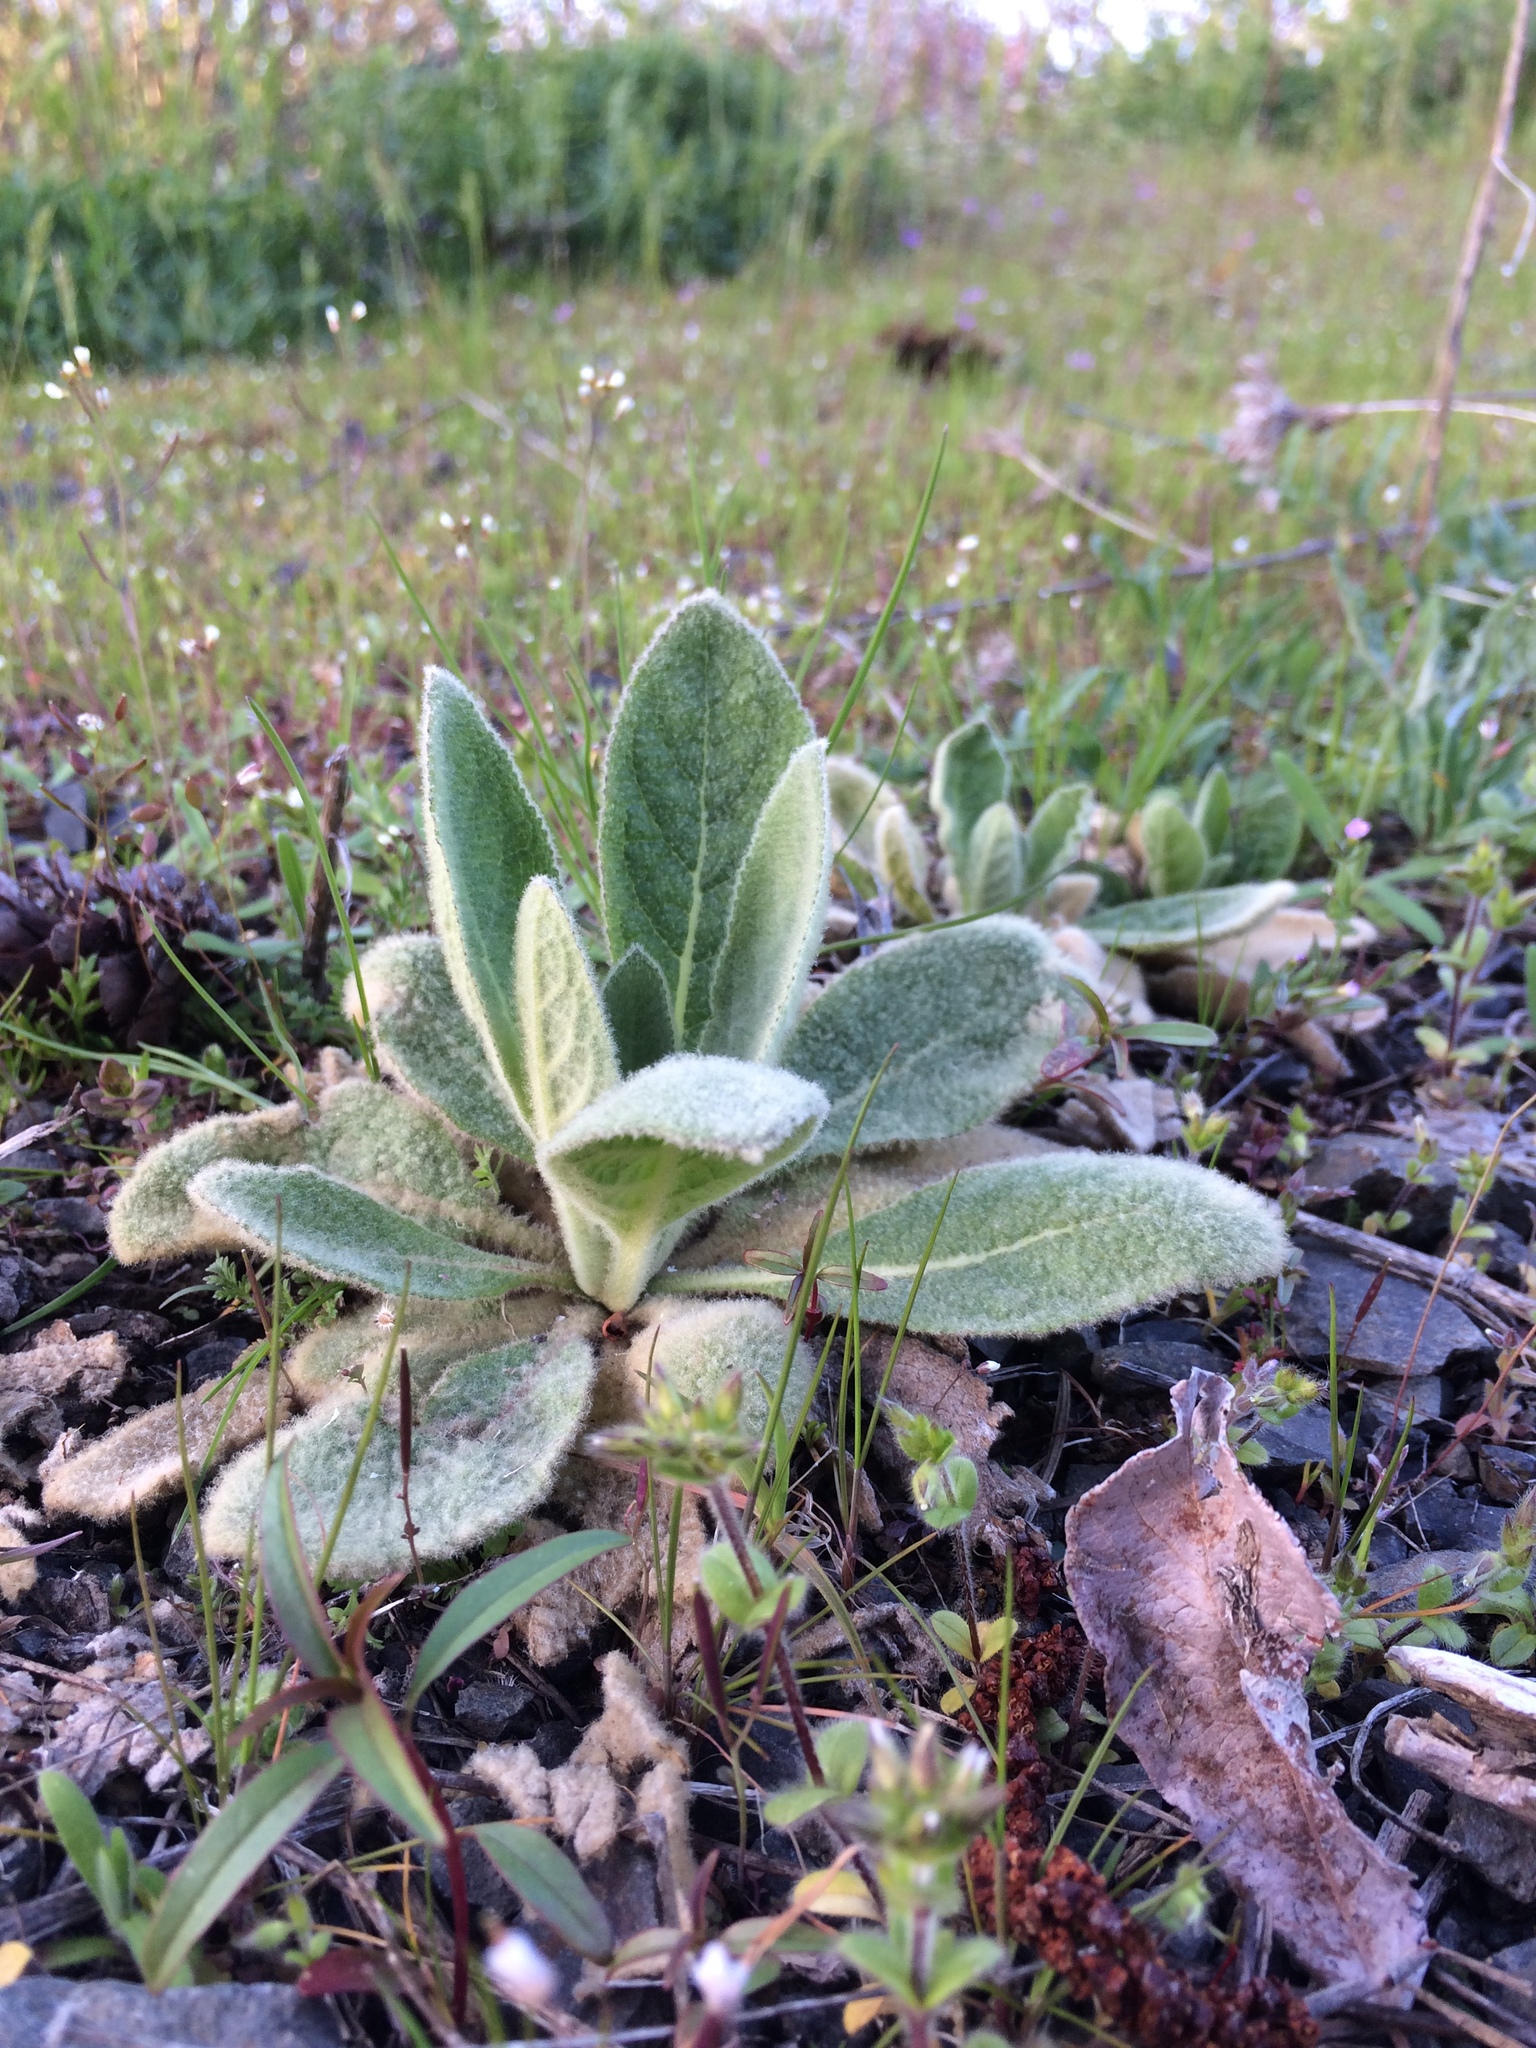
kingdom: Plantae
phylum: Tracheophyta
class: Magnoliopsida
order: Lamiales
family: Scrophulariaceae
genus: Verbascum
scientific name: Verbascum thapsus
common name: Common mullein
